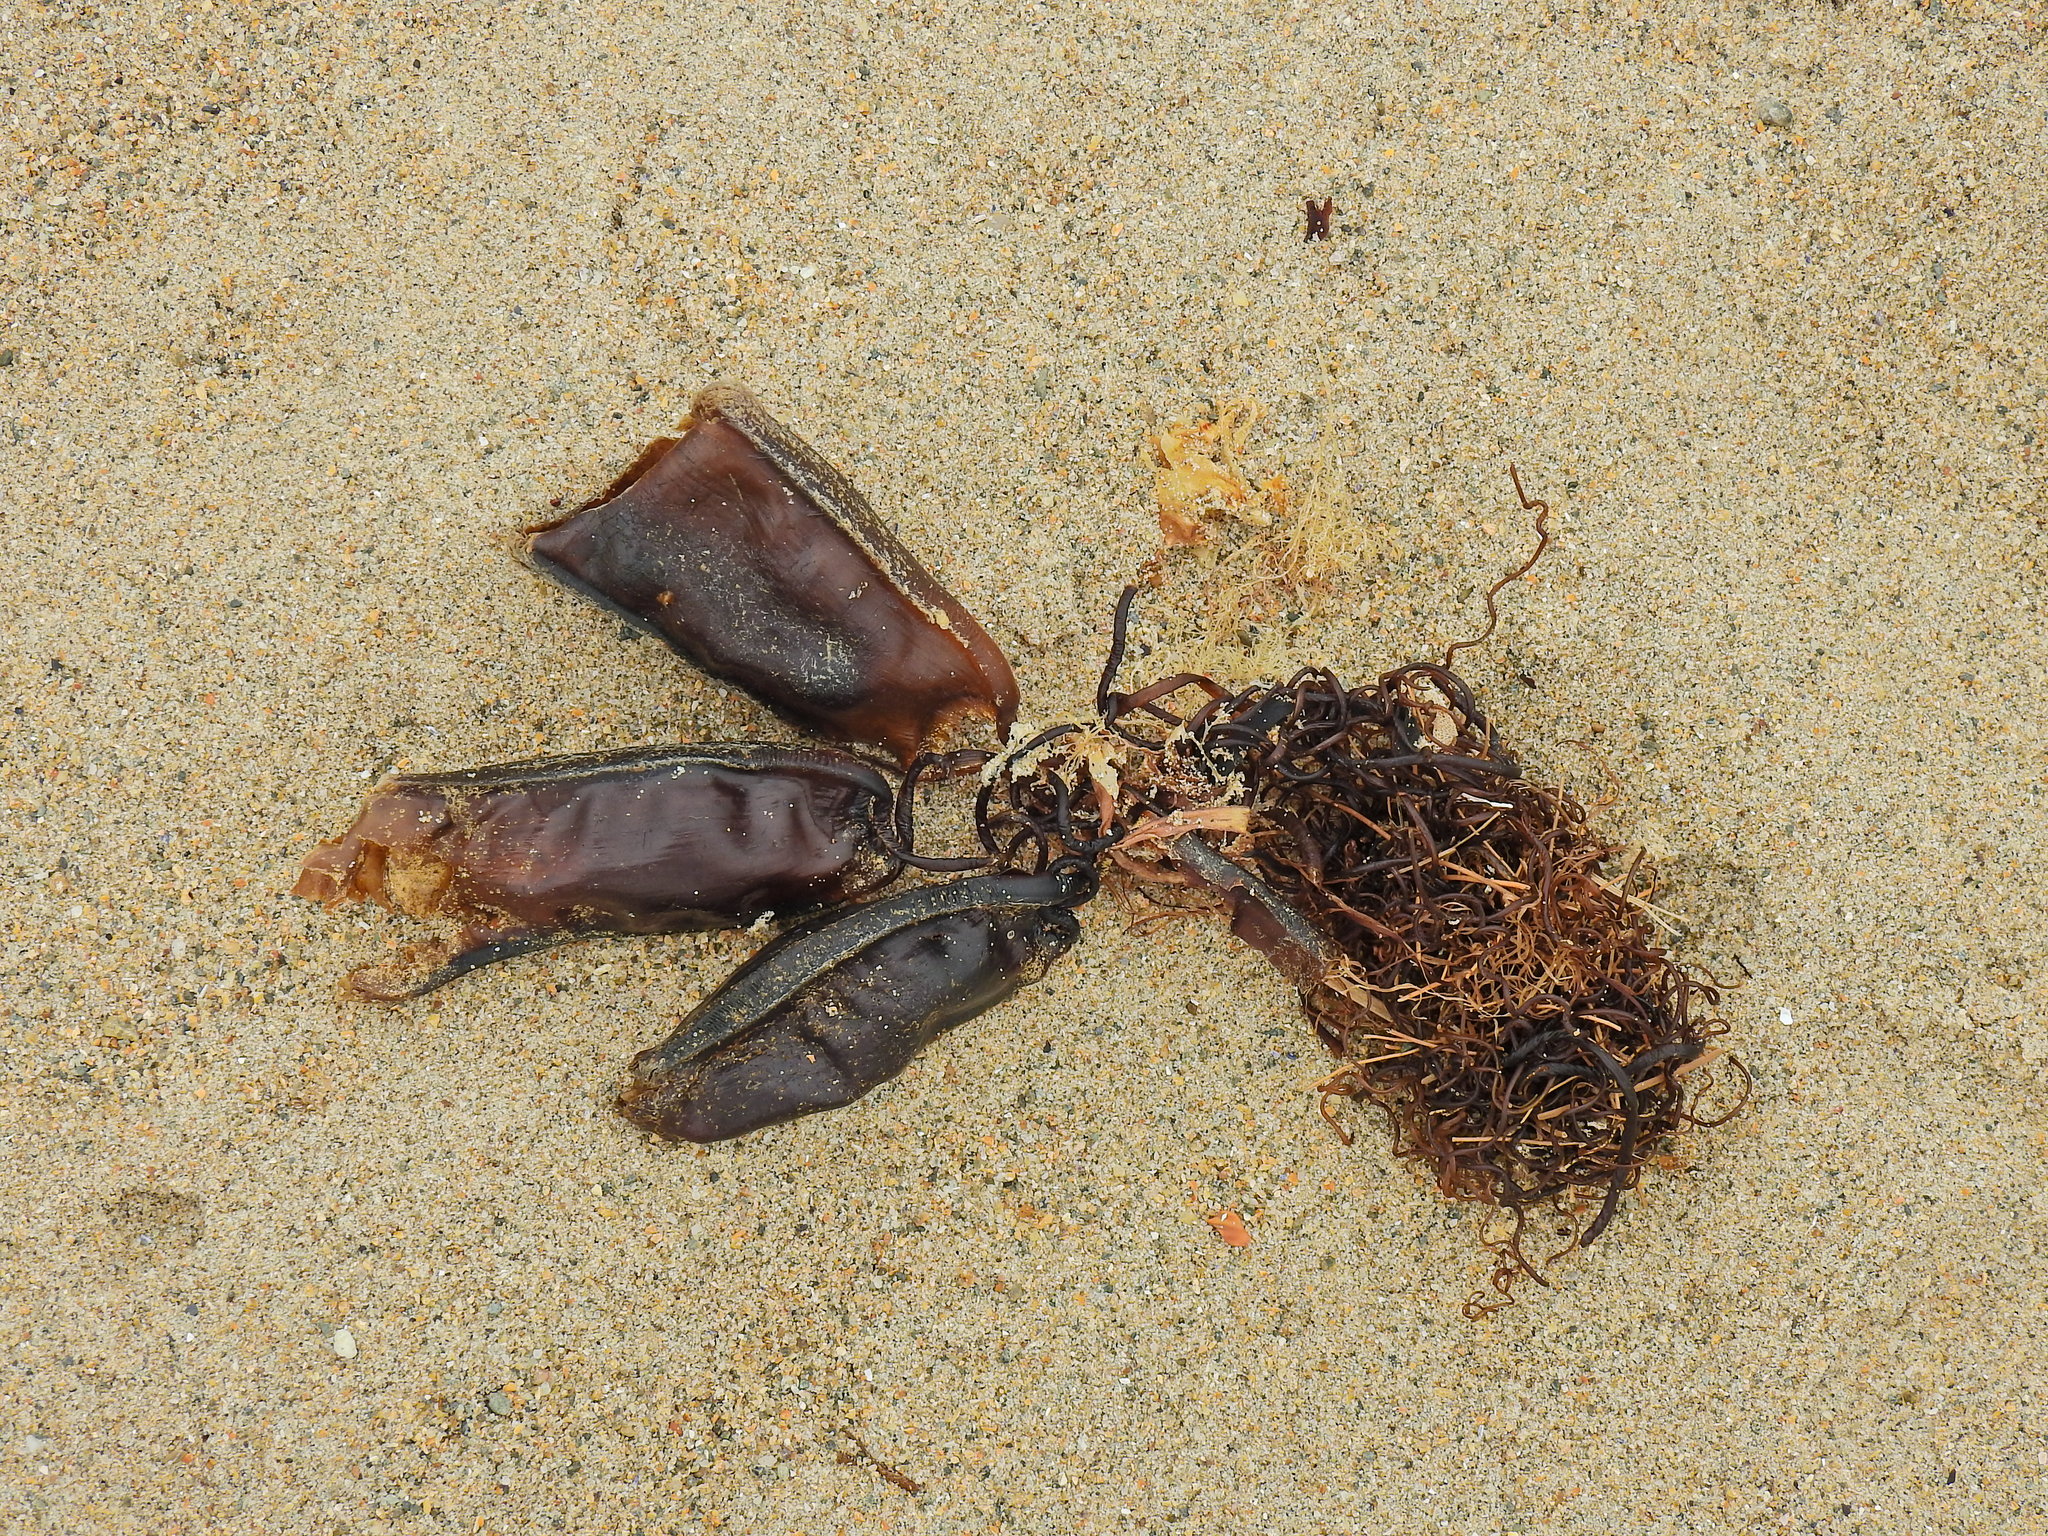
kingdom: Animalia
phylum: Chordata
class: Elasmobranchii
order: Carcharhiniformes
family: Scyliorhinidae
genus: Scyliorhinus
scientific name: Scyliorhinus stellaris
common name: Nursehound
